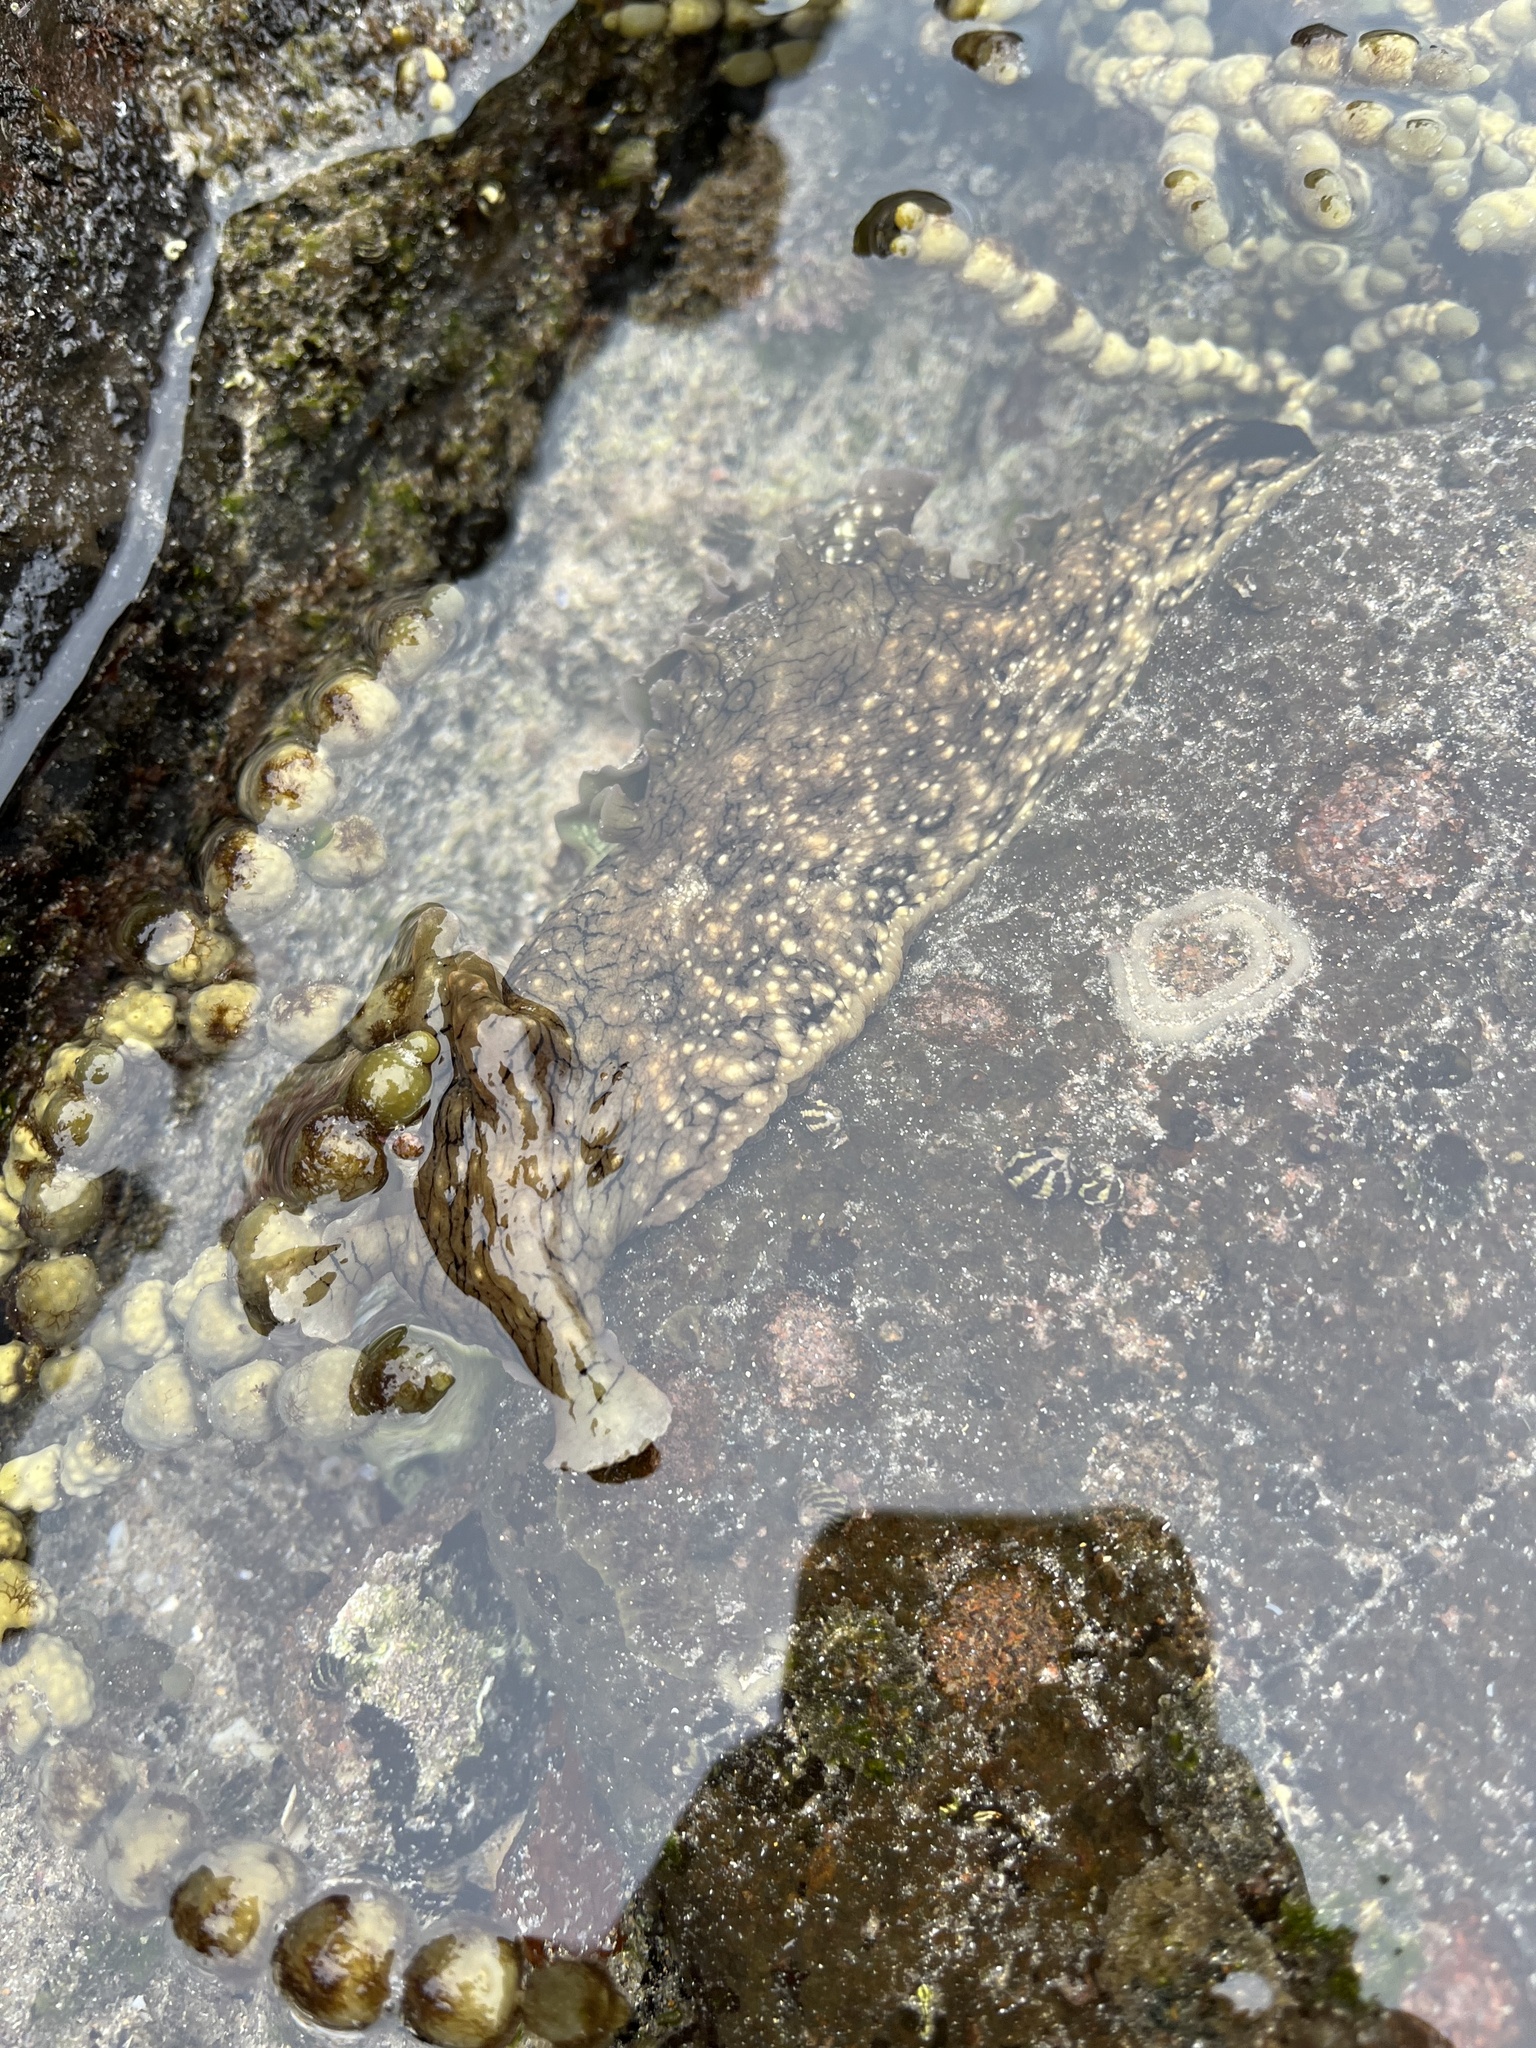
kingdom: Animalia
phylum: Mollusca
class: Gastropoda
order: Aplysiida
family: Aplysiidae
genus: Aplysia
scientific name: Aplysia argus
